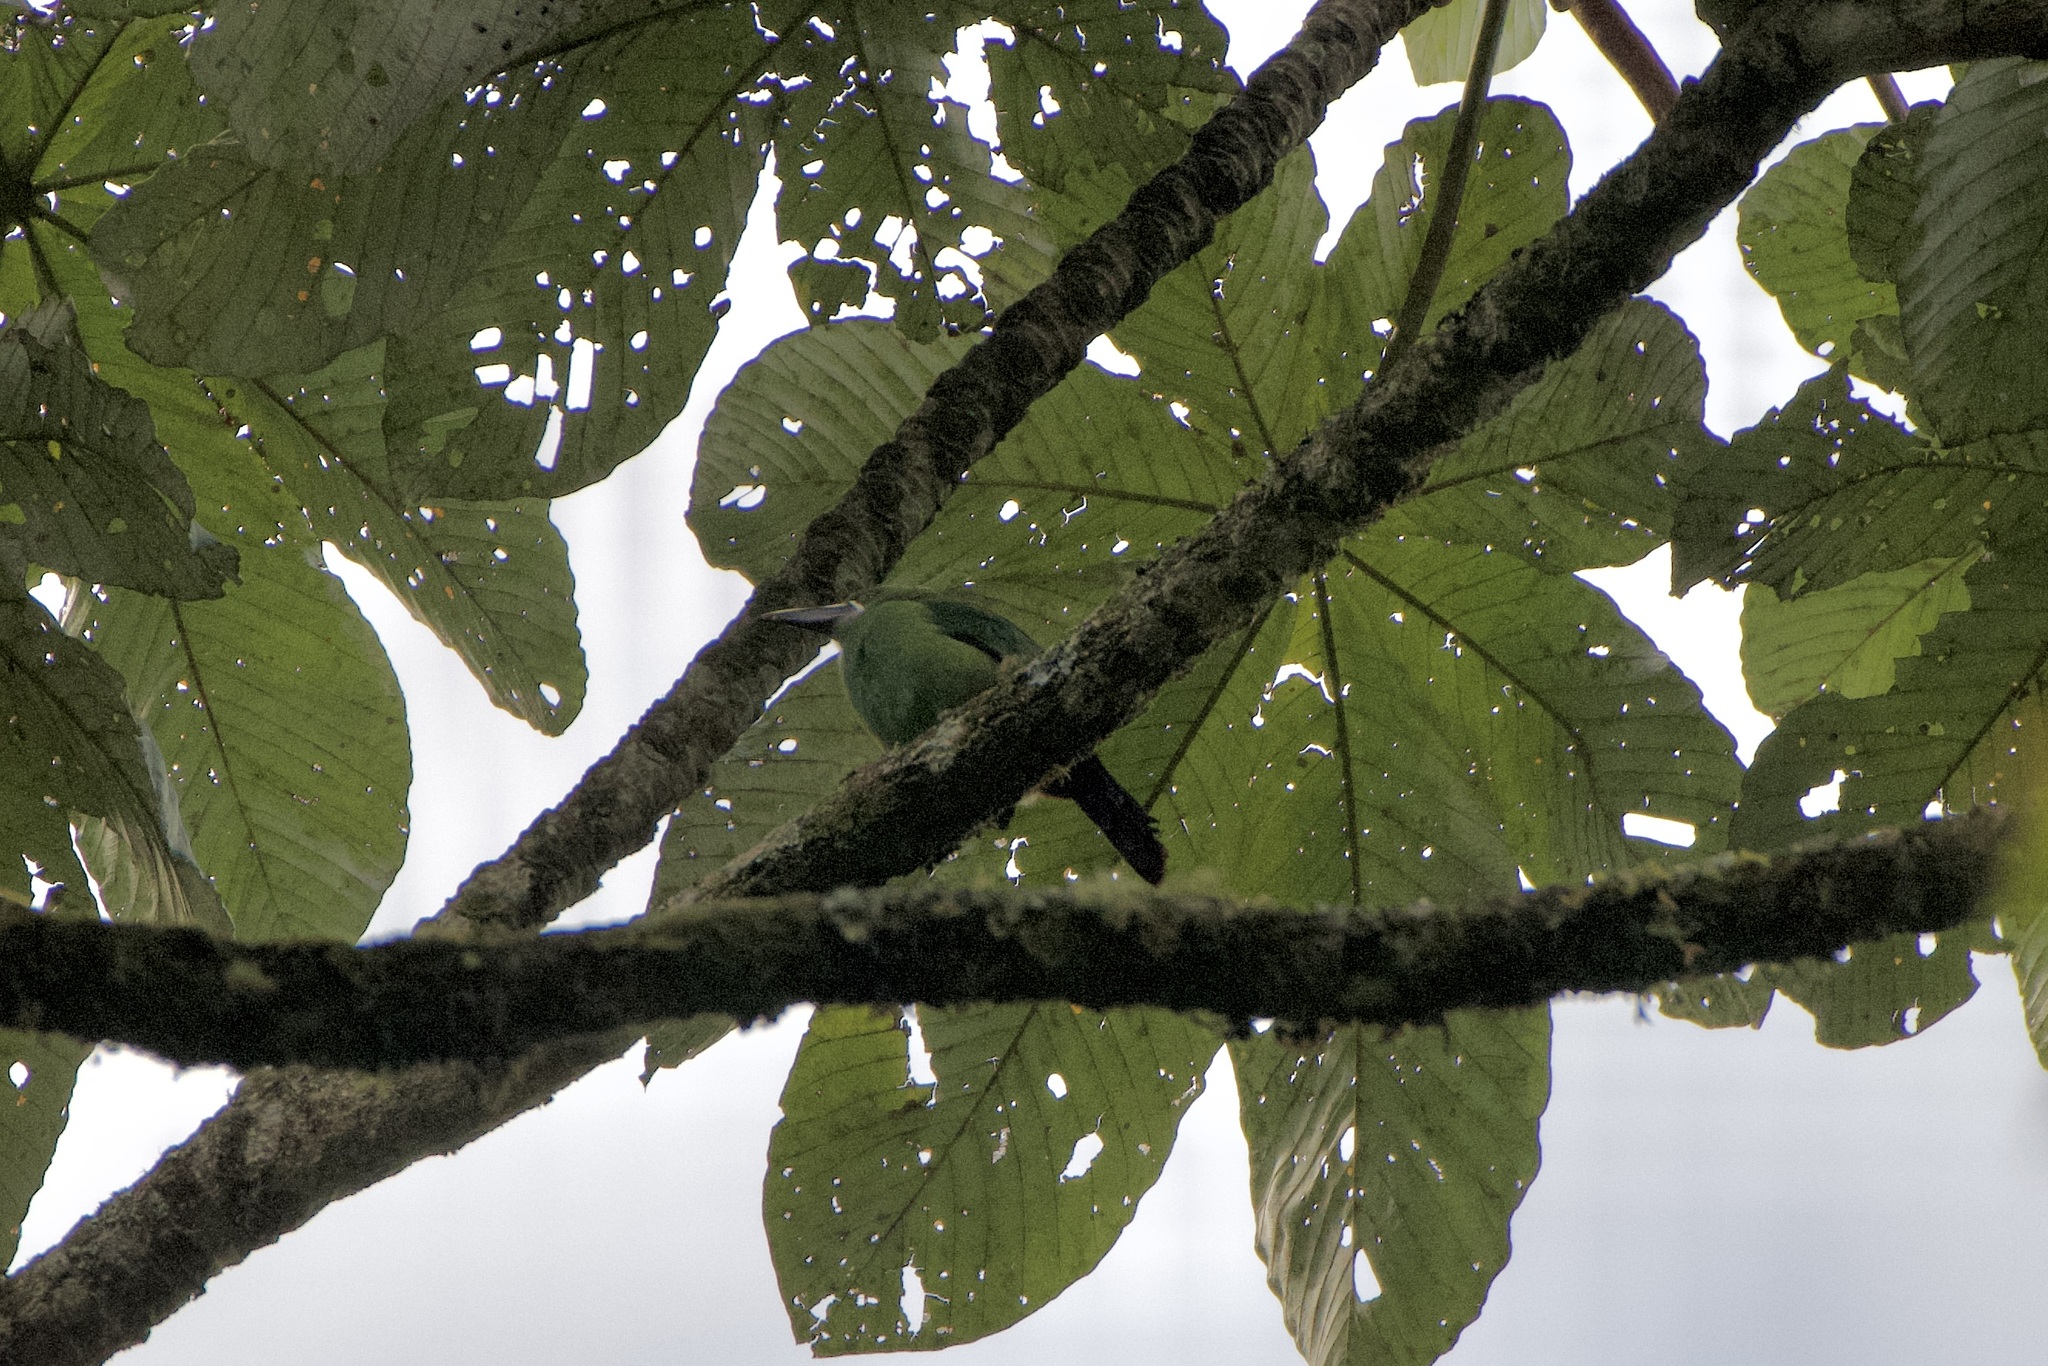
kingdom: Animalia
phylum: Chordata
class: Aves
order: Piciformes
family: Ramphastidae
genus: Aulacorhynchus
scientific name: Aulacorhynchus albivitta
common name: White-throated toucanet
